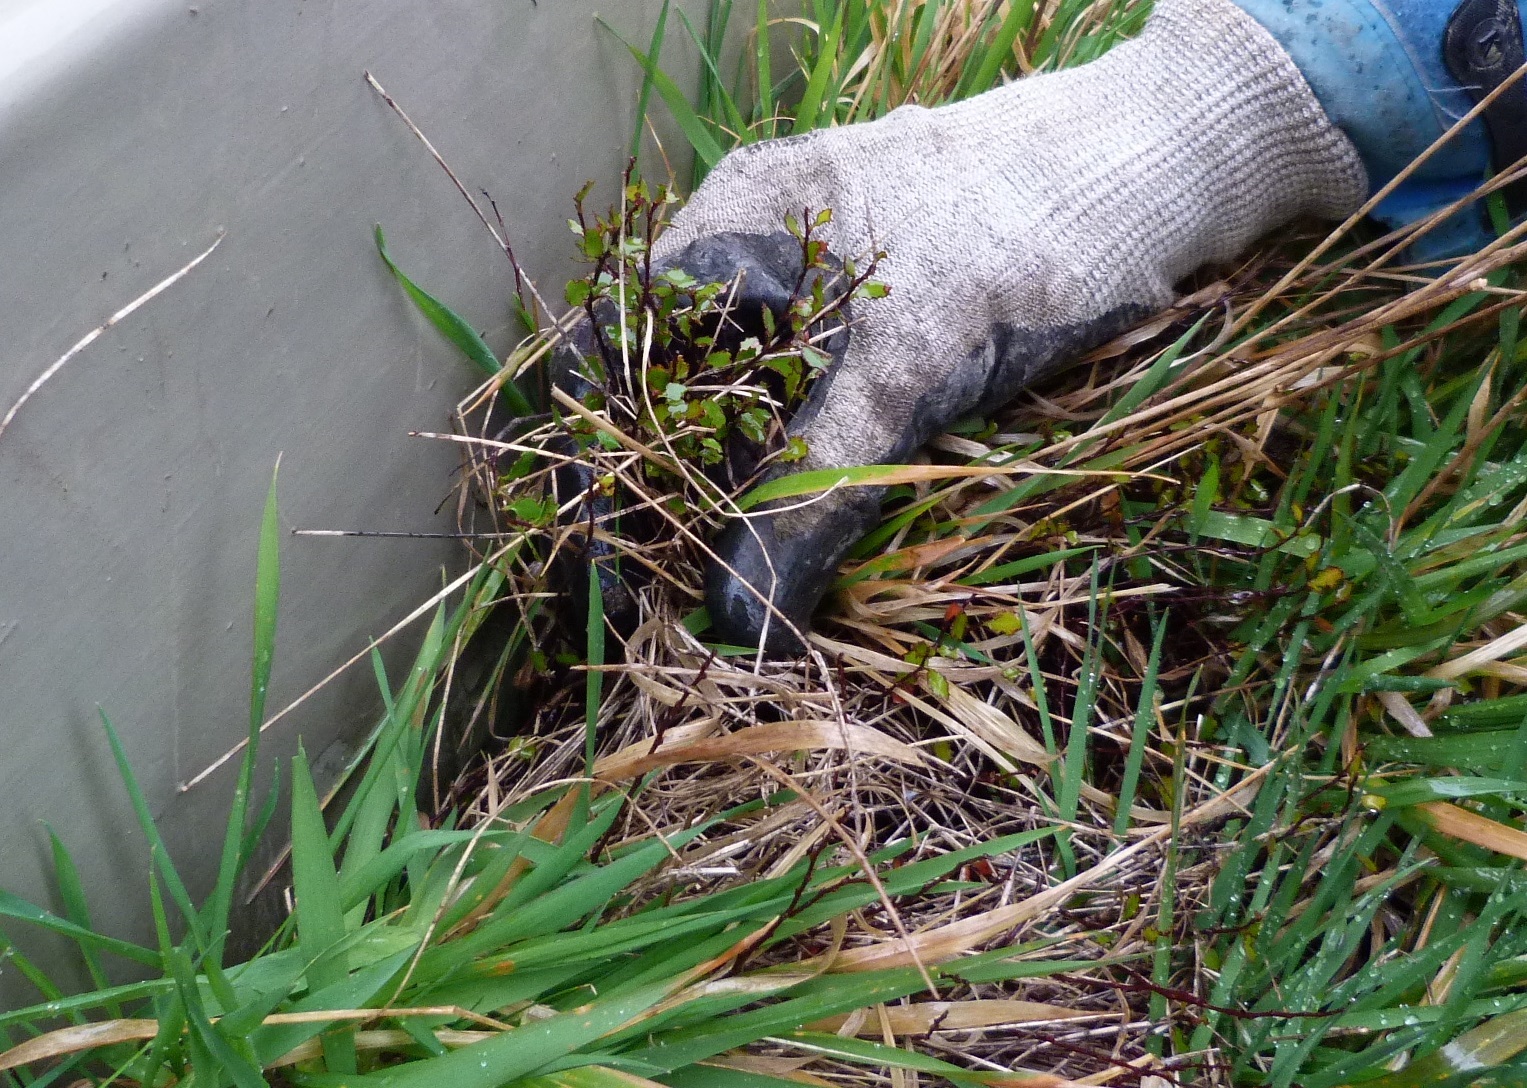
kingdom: Plantae
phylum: Tracheophyta
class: Magnoliopsida
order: Caryophyllales
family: Polygonaceae
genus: Muehlenbeckia
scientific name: Muehlenbeckia axillaris
